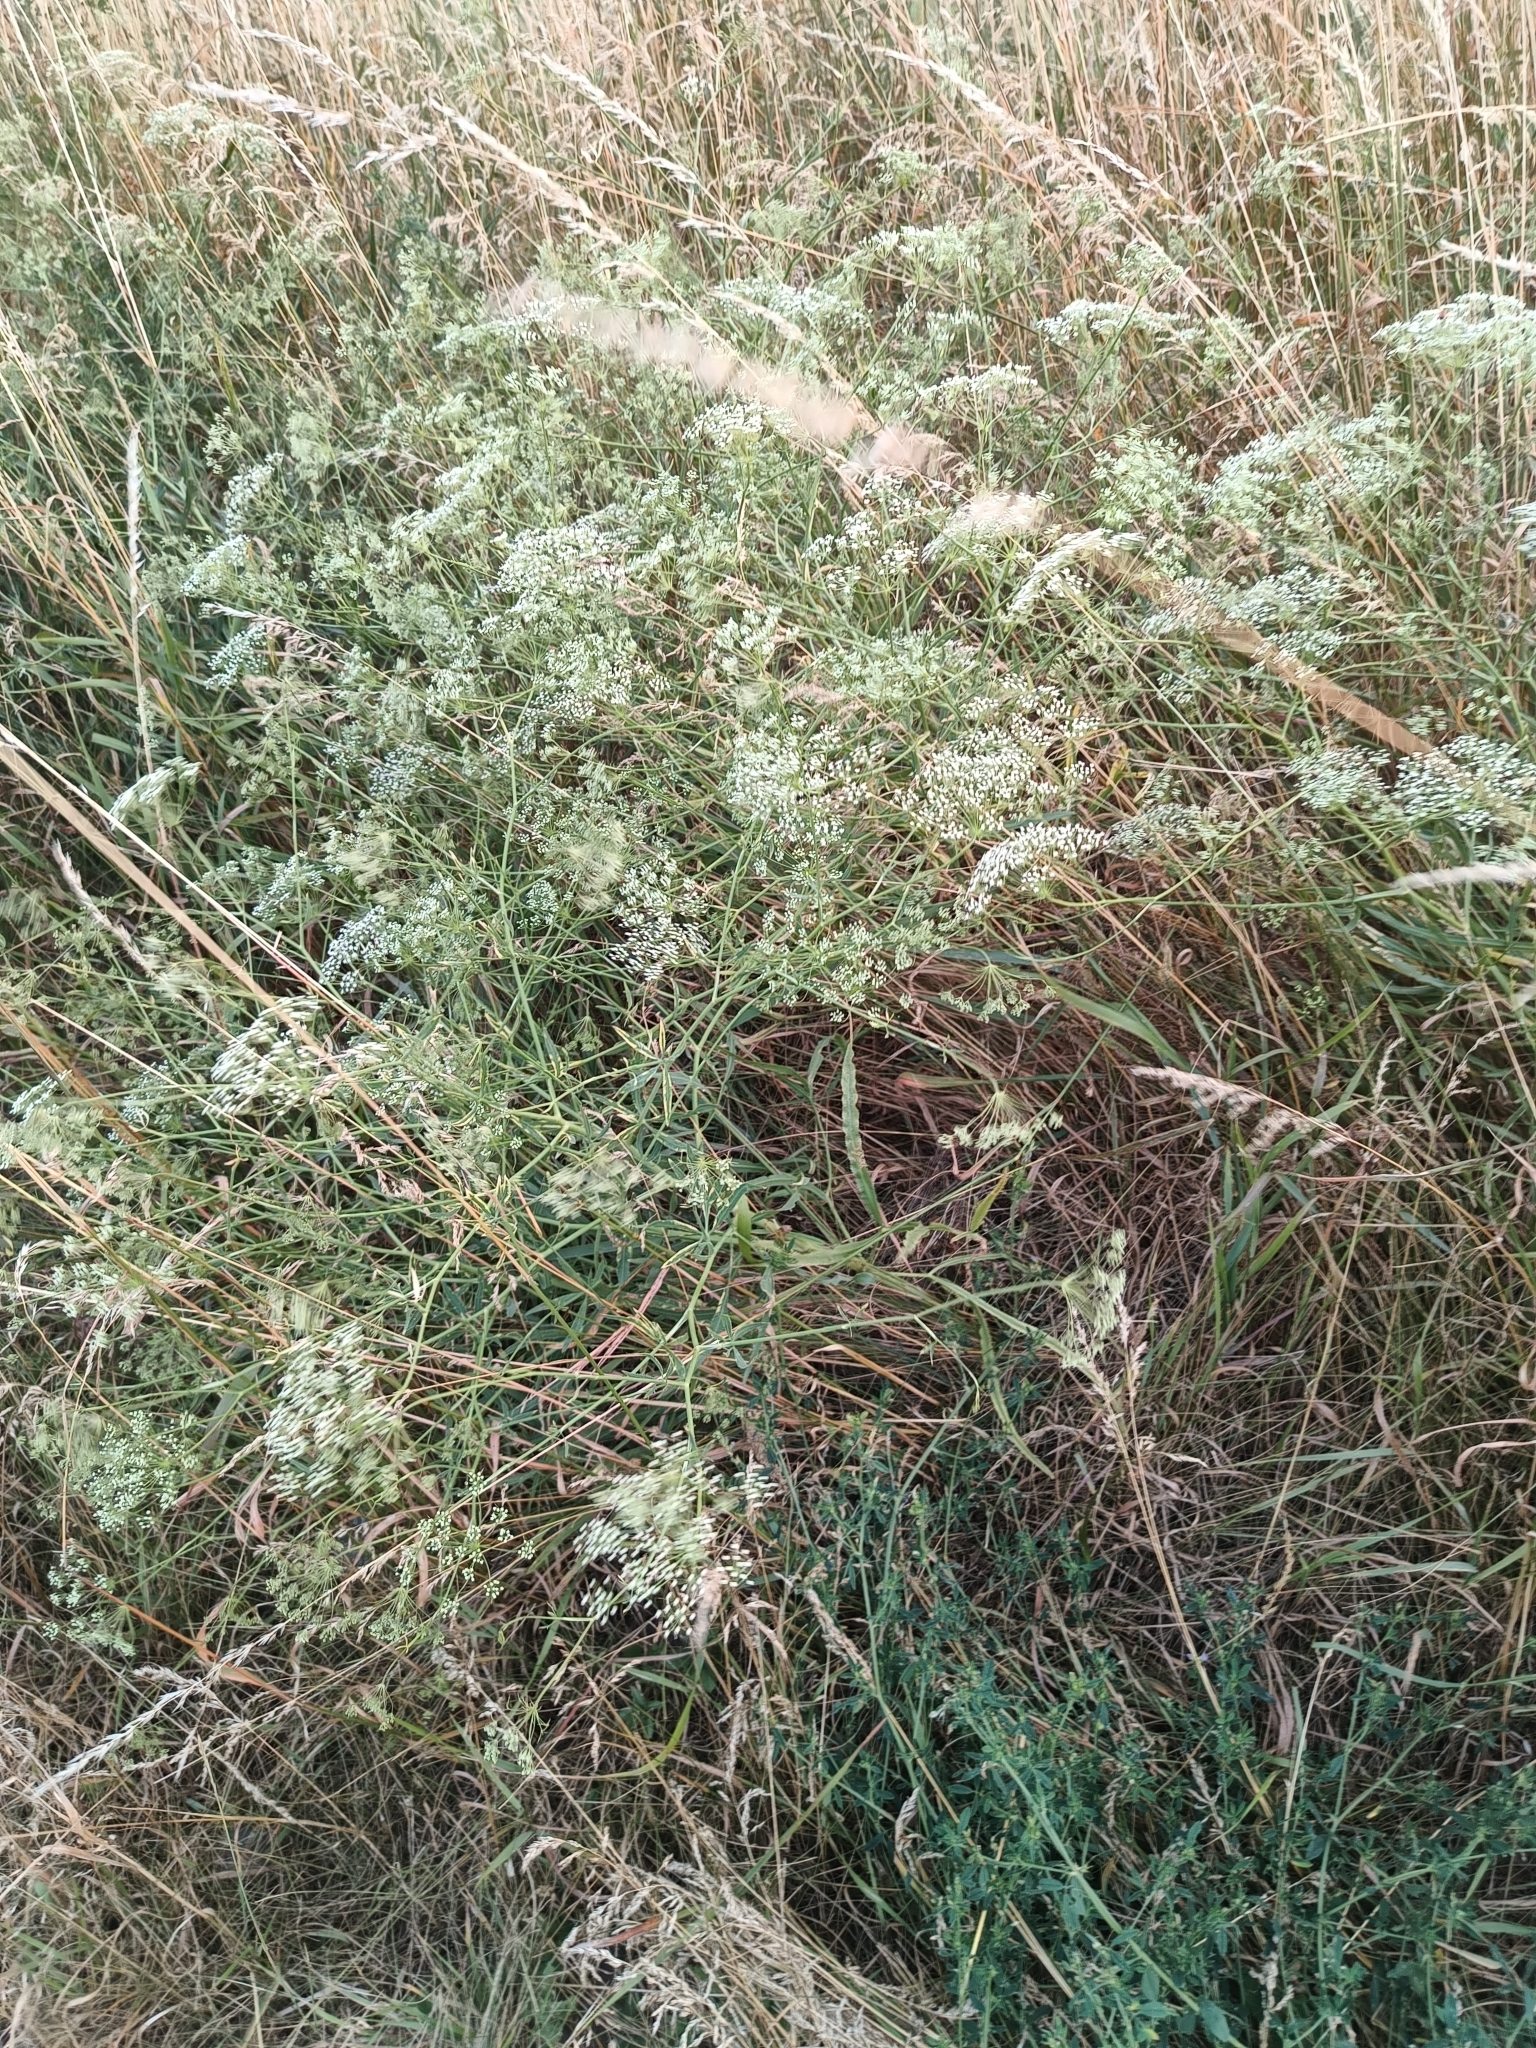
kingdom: Plantae
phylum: Tracheophyta
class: Magnoliopsida
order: Apiales
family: Apiaceae
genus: Falcaria
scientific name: Falcaria vulgaris
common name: Longleaf
